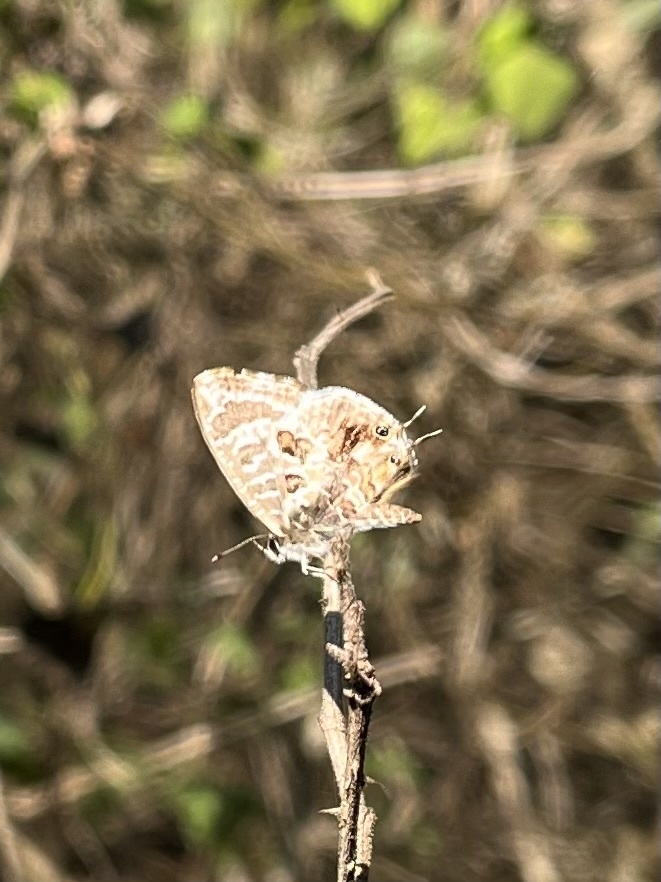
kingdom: Animalia
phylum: Arthropoda
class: Insecta
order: Lepidoptera
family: Lycaenidae
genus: Cacyreus
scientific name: Cacyreus lingeus
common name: Bush bronze
